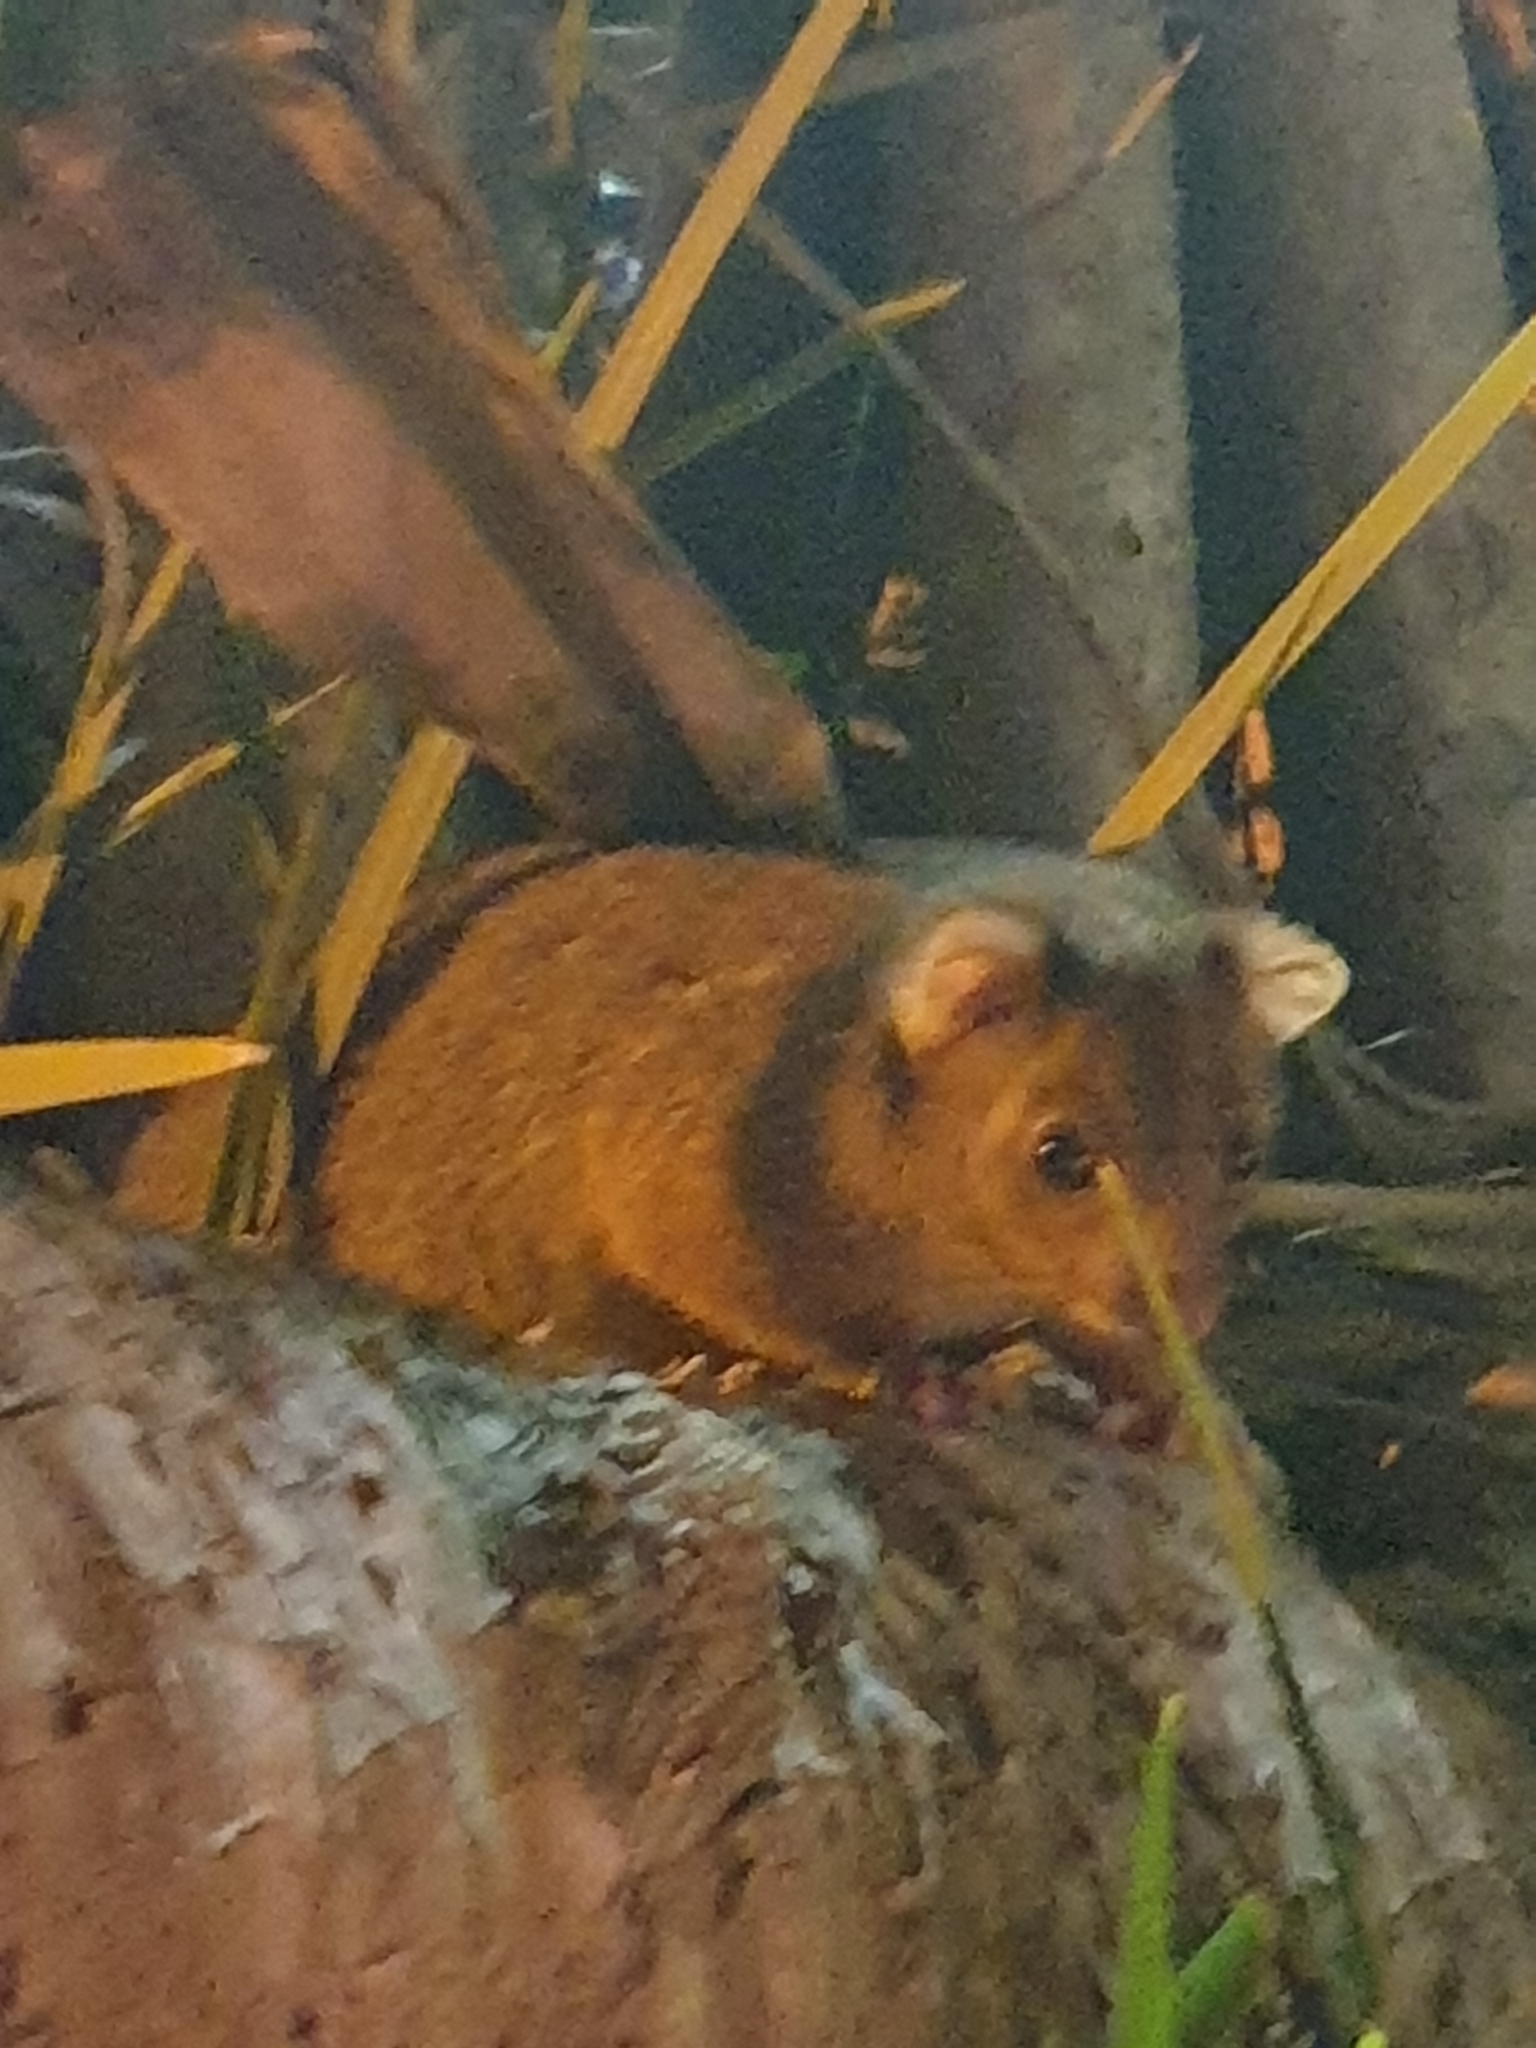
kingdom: Animalia
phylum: Chordata
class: Mammalia
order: Diprotodontia
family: Pseudocheiridae
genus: Pseudocheirus
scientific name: Pseudocheirus peregrinus
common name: Common ringtail possum
